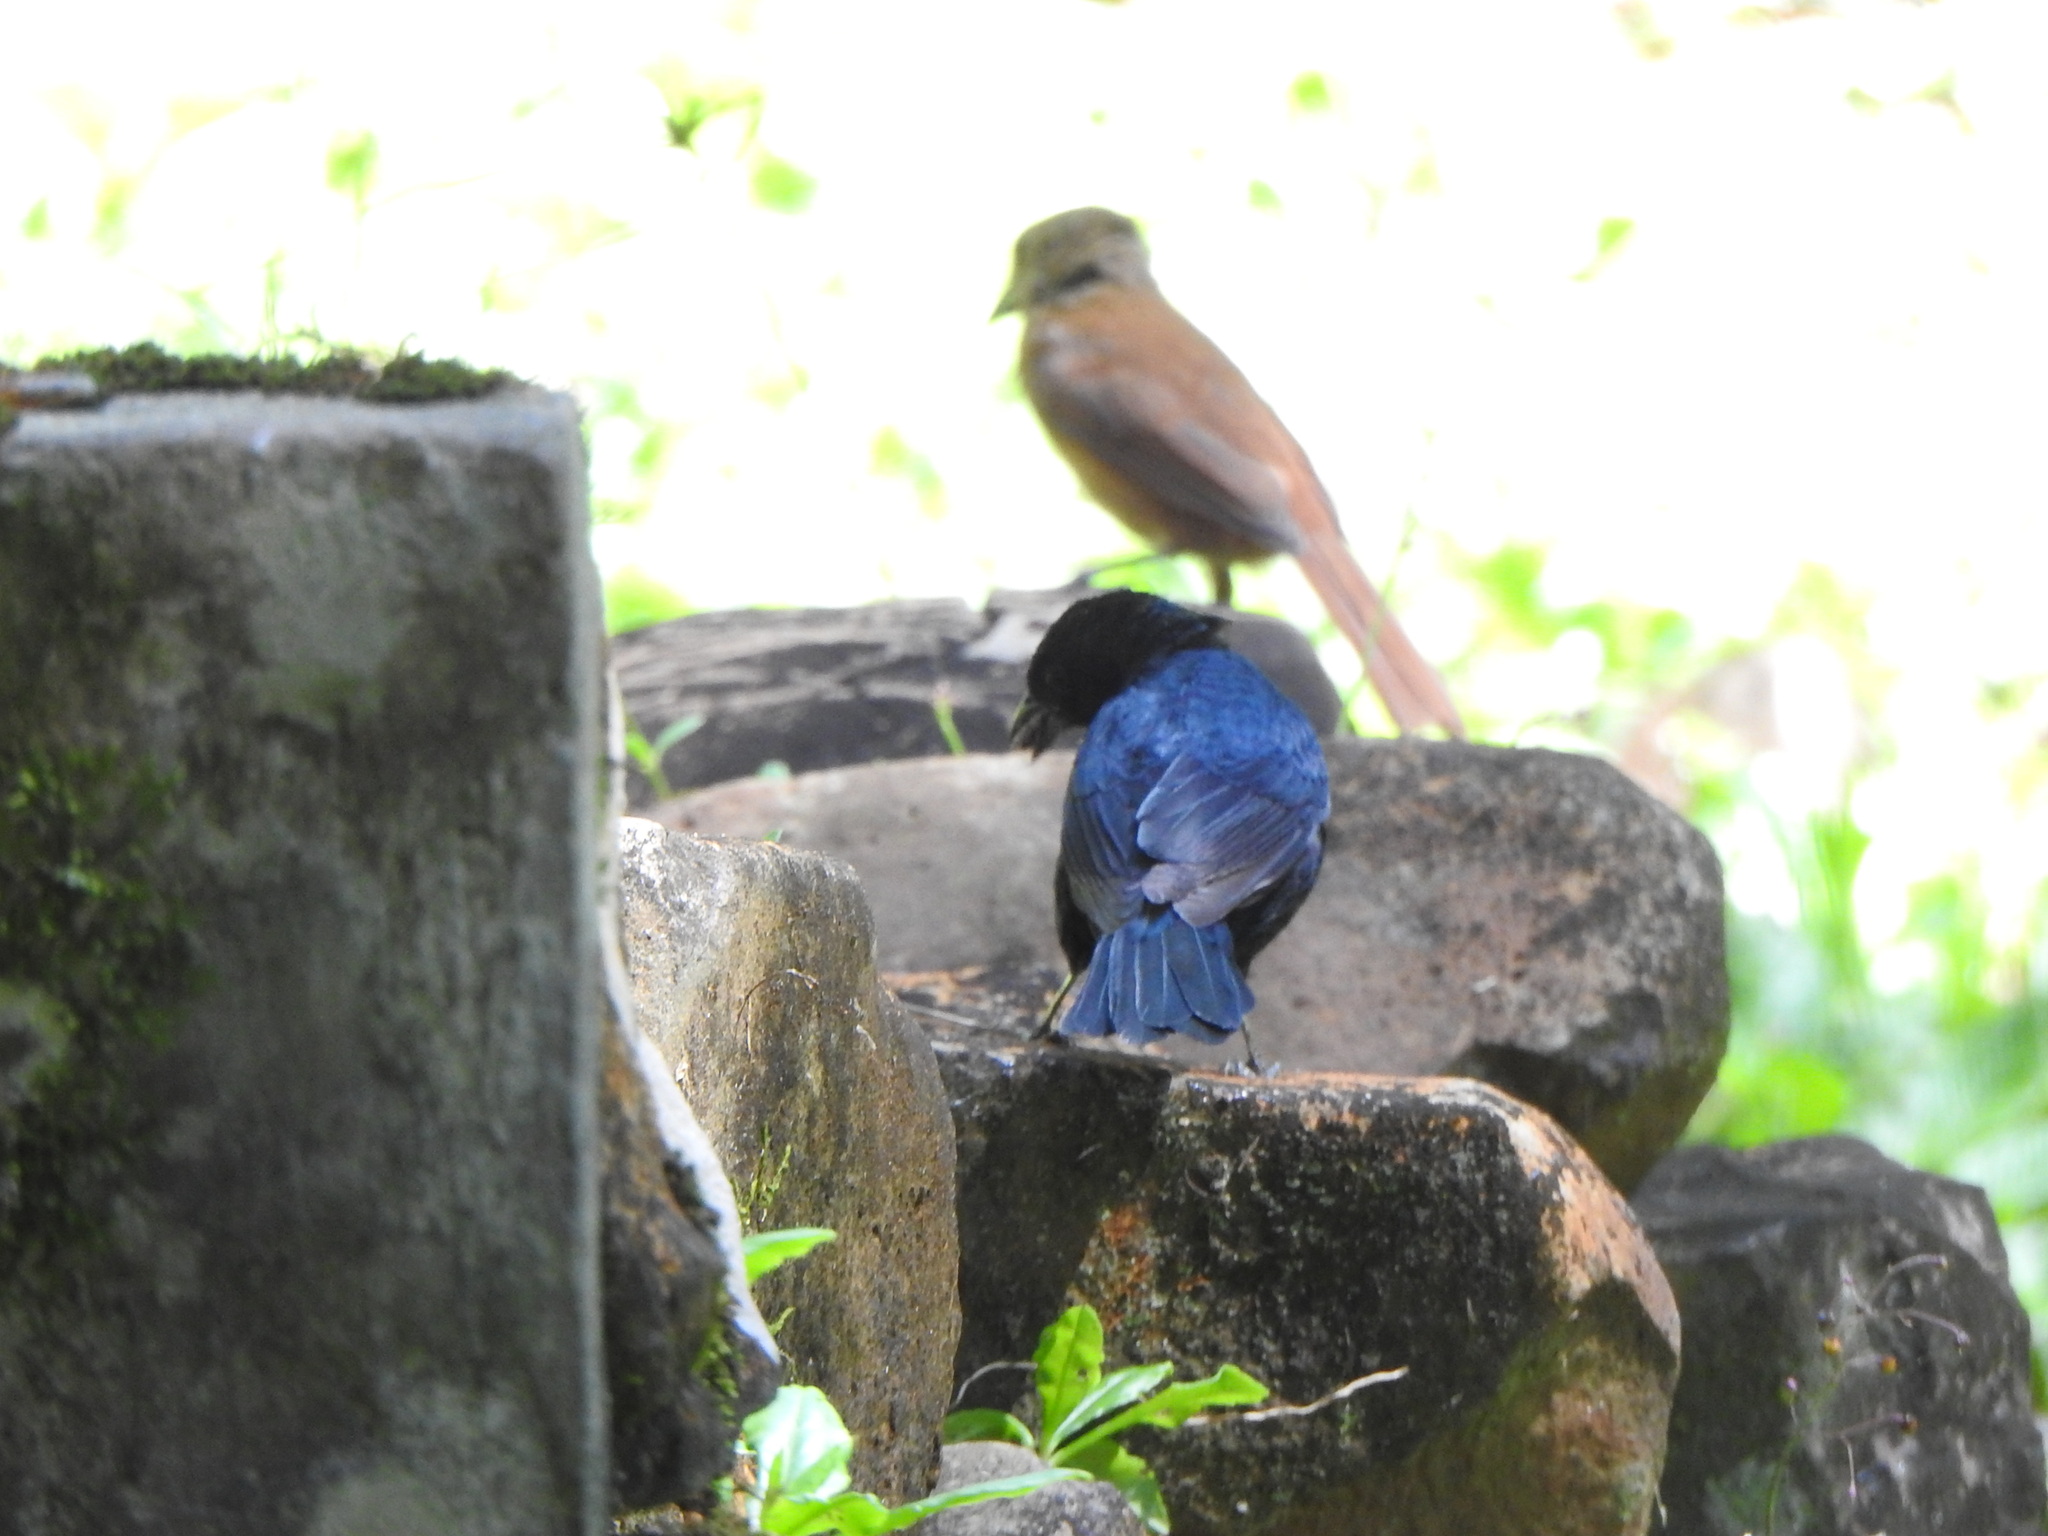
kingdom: Animalia
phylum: Chordata
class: Aves
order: Passeriformes
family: Thraupidae
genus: Tachyphonus
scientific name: Tachyphonus coronatus
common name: Ruby-crowned tanager
